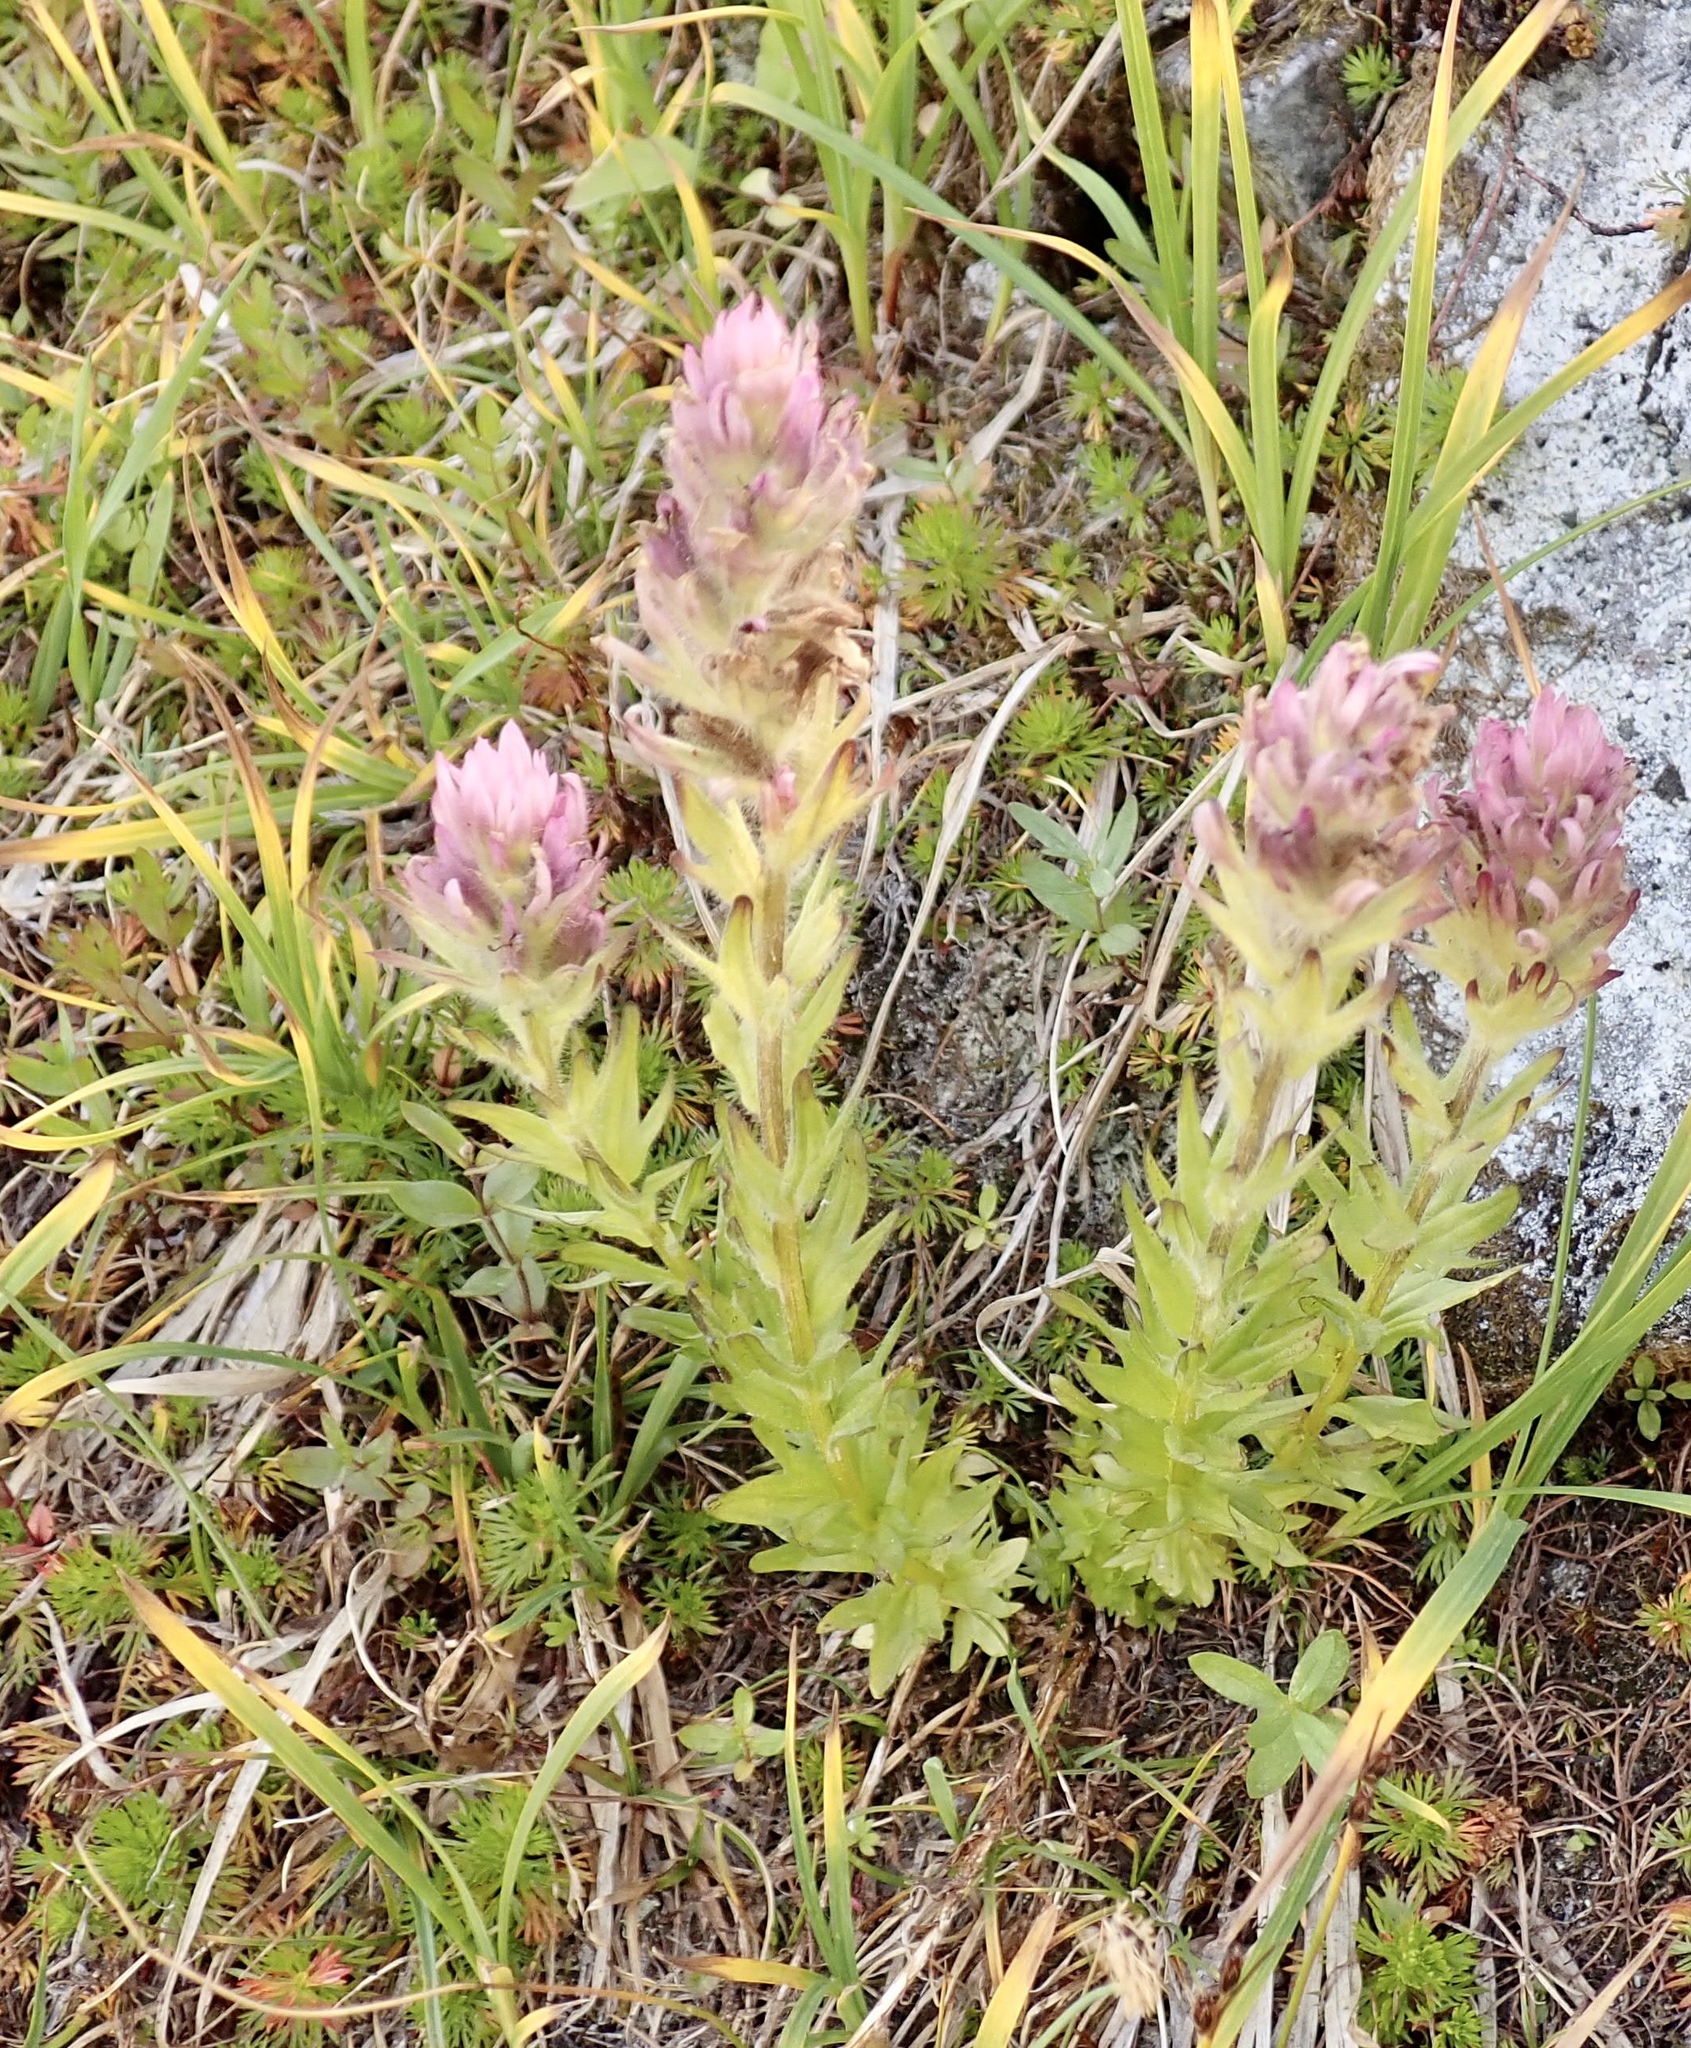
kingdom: Plantae
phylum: Tracheophyta
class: Magnoliopsida
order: Lamiales
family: Orobanchaceae
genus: Castilleja
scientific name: Castilleja parviflora
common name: Mountain paintbrush
